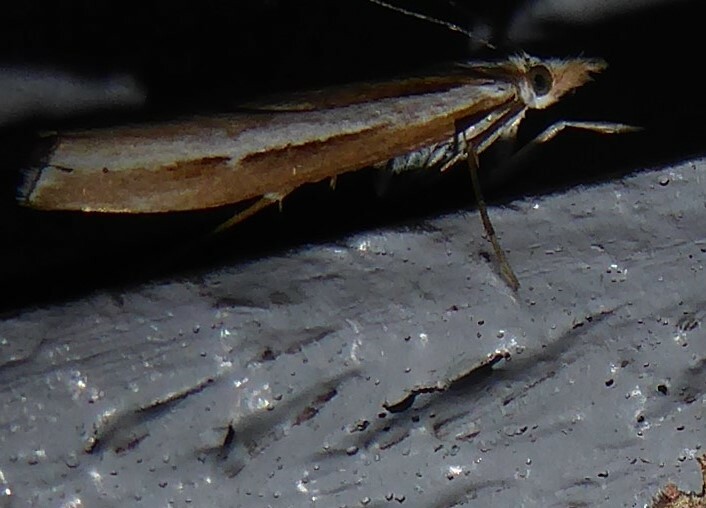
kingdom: Animalia
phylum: Arthropoda
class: Insecta
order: Lepidoptera
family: Crambidae
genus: Orocrambus
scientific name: Orocrambus vittellus
